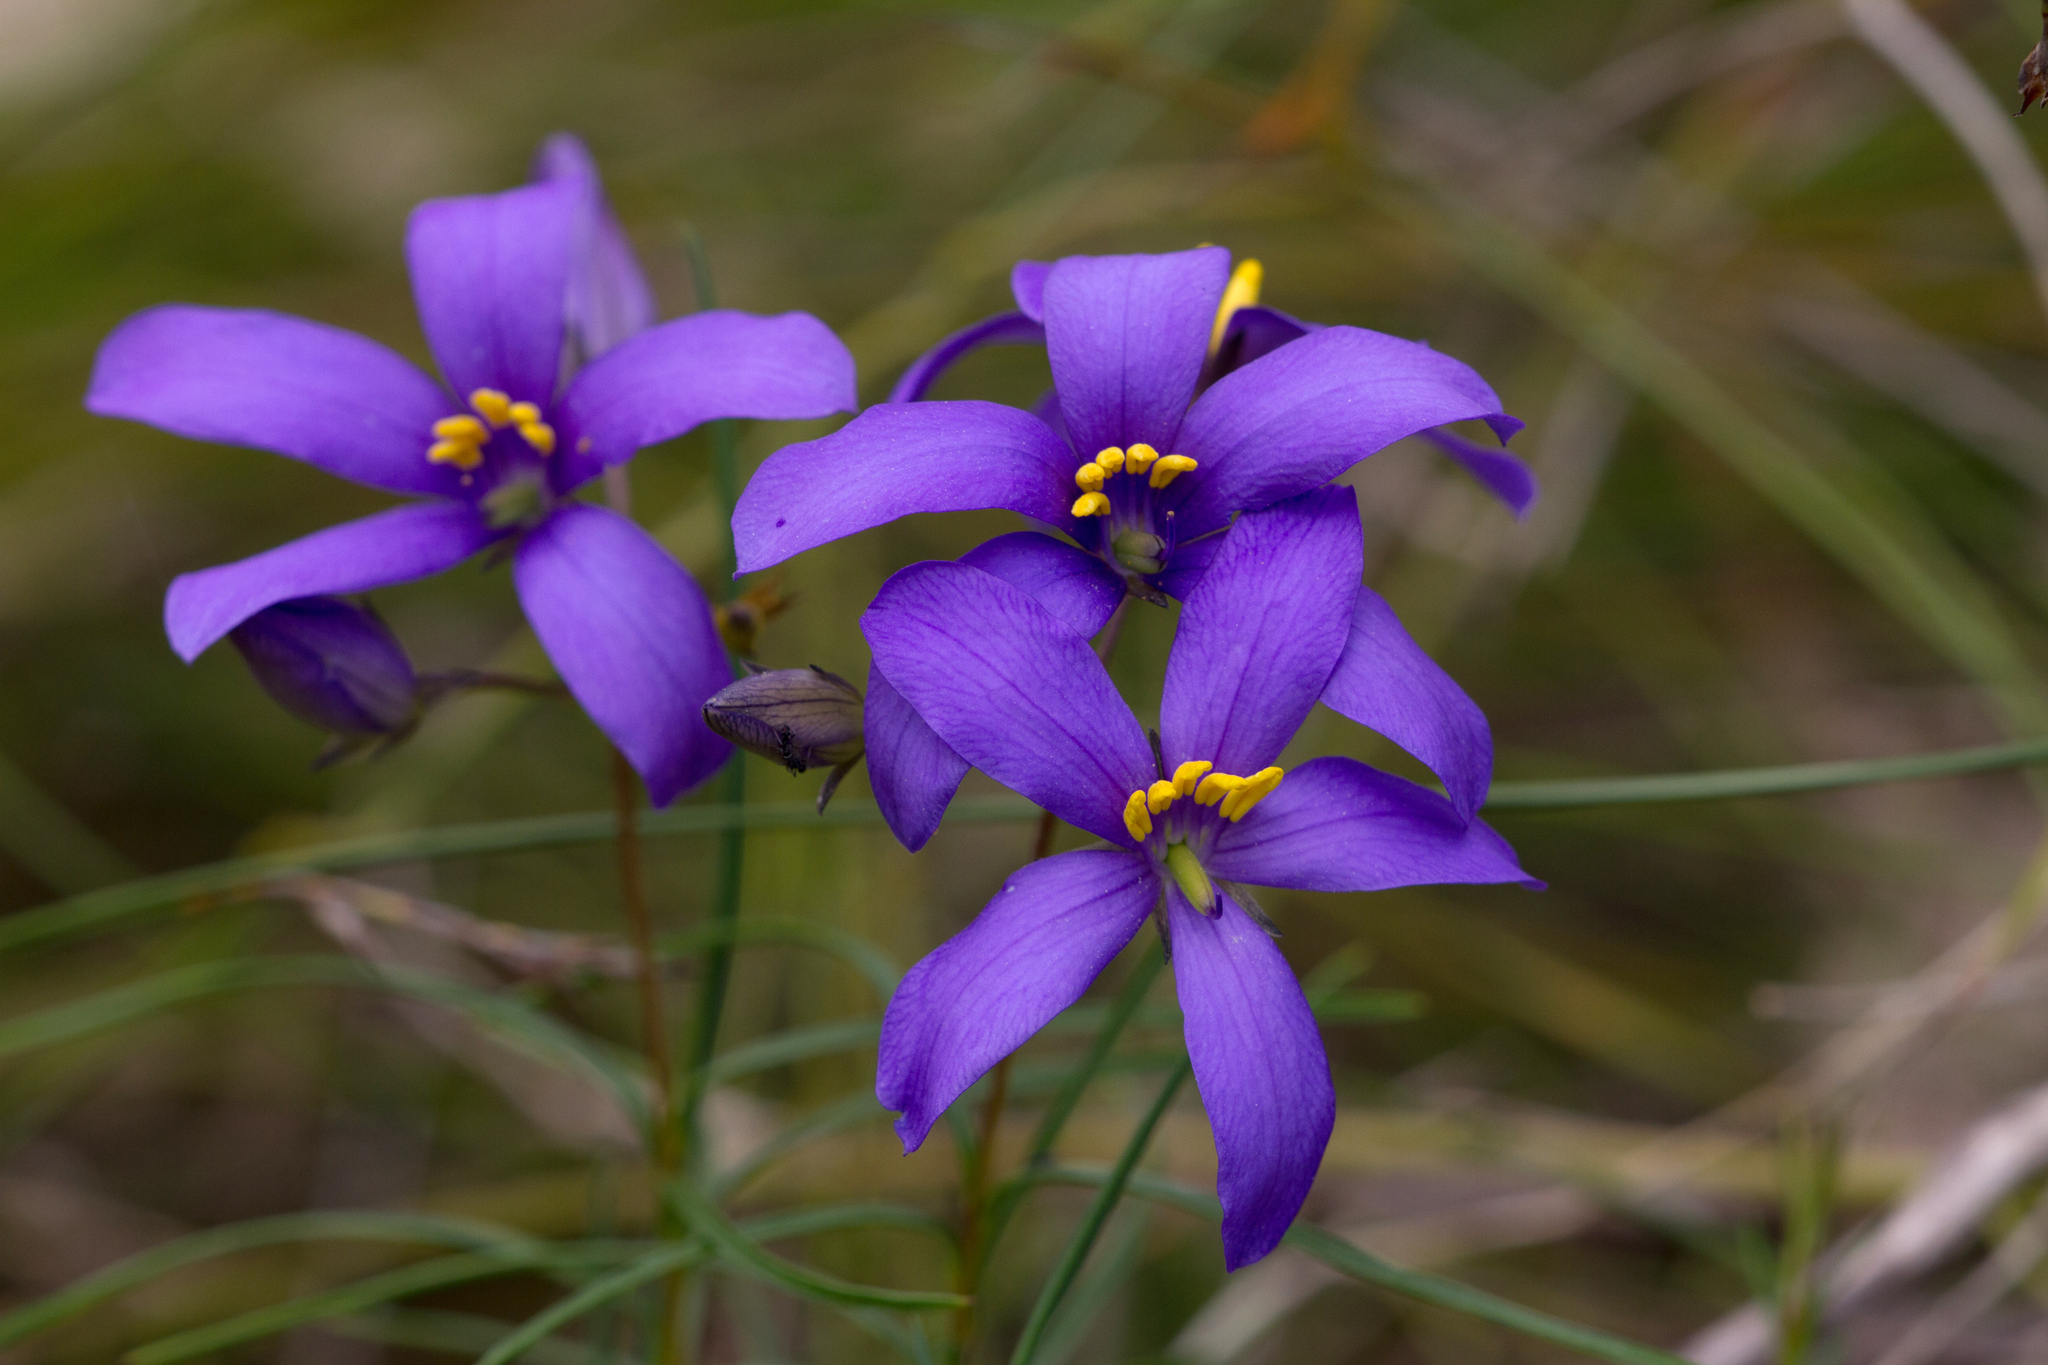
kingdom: Plantae
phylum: Tracheophyta
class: Magnoliopsida
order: Apiales
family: Pittosporaceae
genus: Cheiranthera
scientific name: Cheiranthera alternifolia
